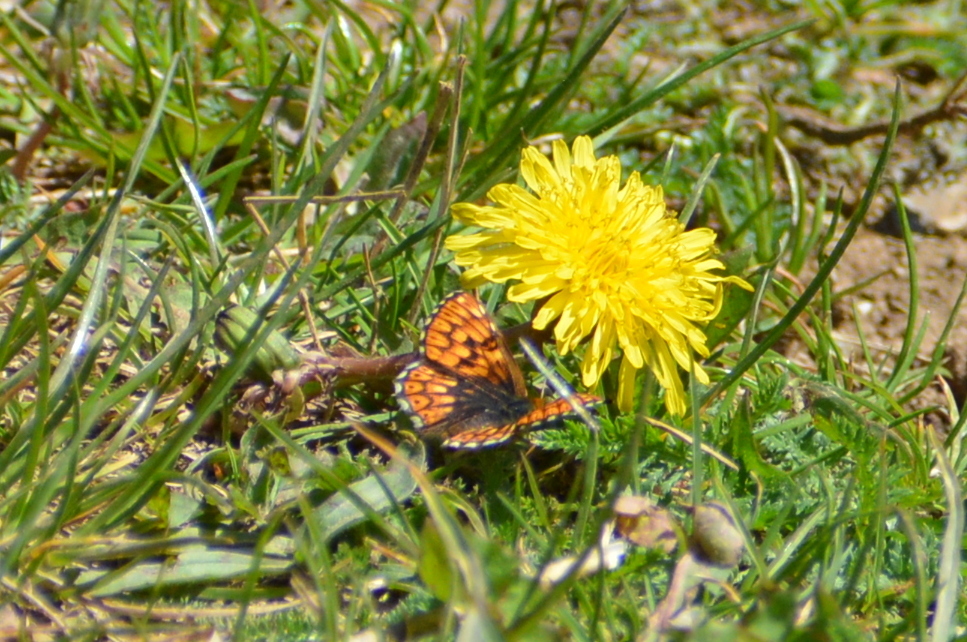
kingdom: Animalia
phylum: Arthropoda
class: Insecta
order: Lepidoptera
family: Riodinidae
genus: Hamearis
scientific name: Hamearis lucina
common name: Duke of burgundy fritillary
